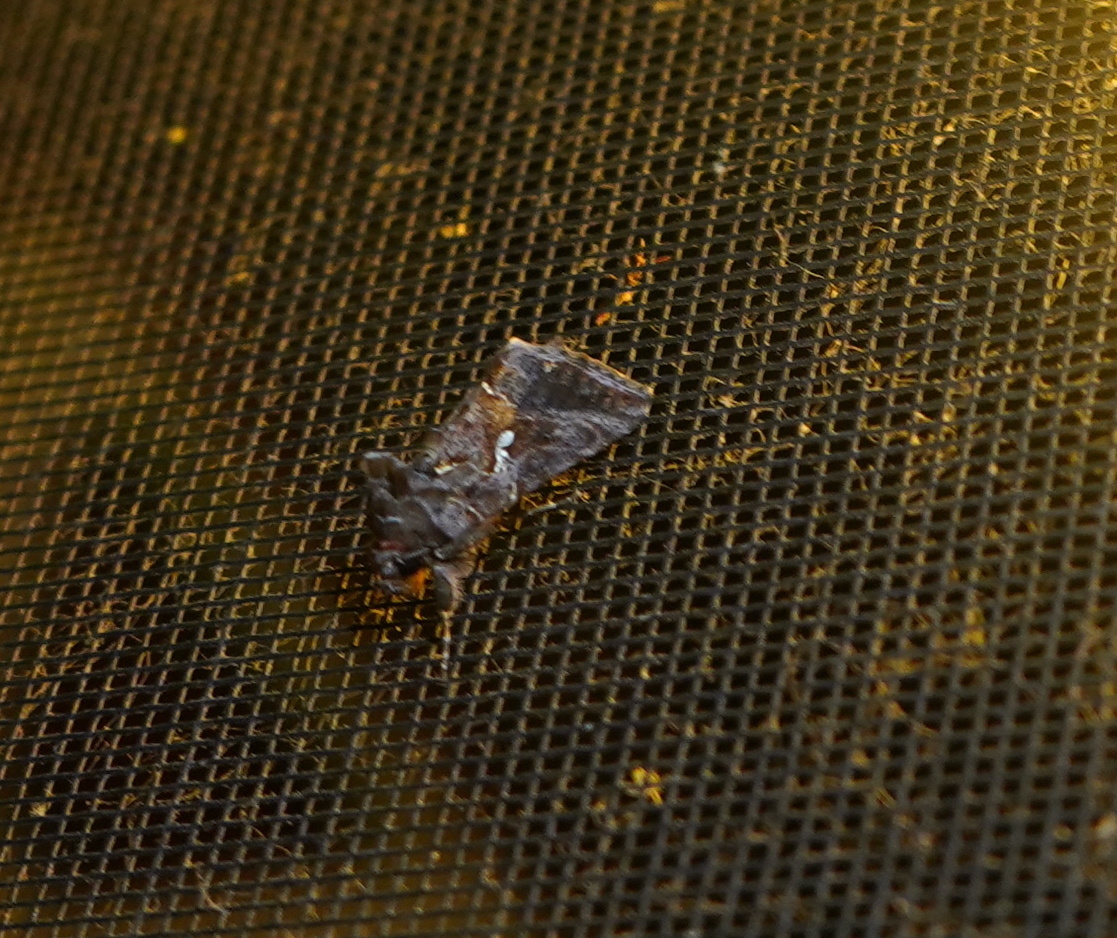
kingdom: Animalia
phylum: Arthropoda
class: Insecta
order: Lepidoptera
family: Noctuidae
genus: Autographa
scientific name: Autographa precationis
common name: Common looper moth
